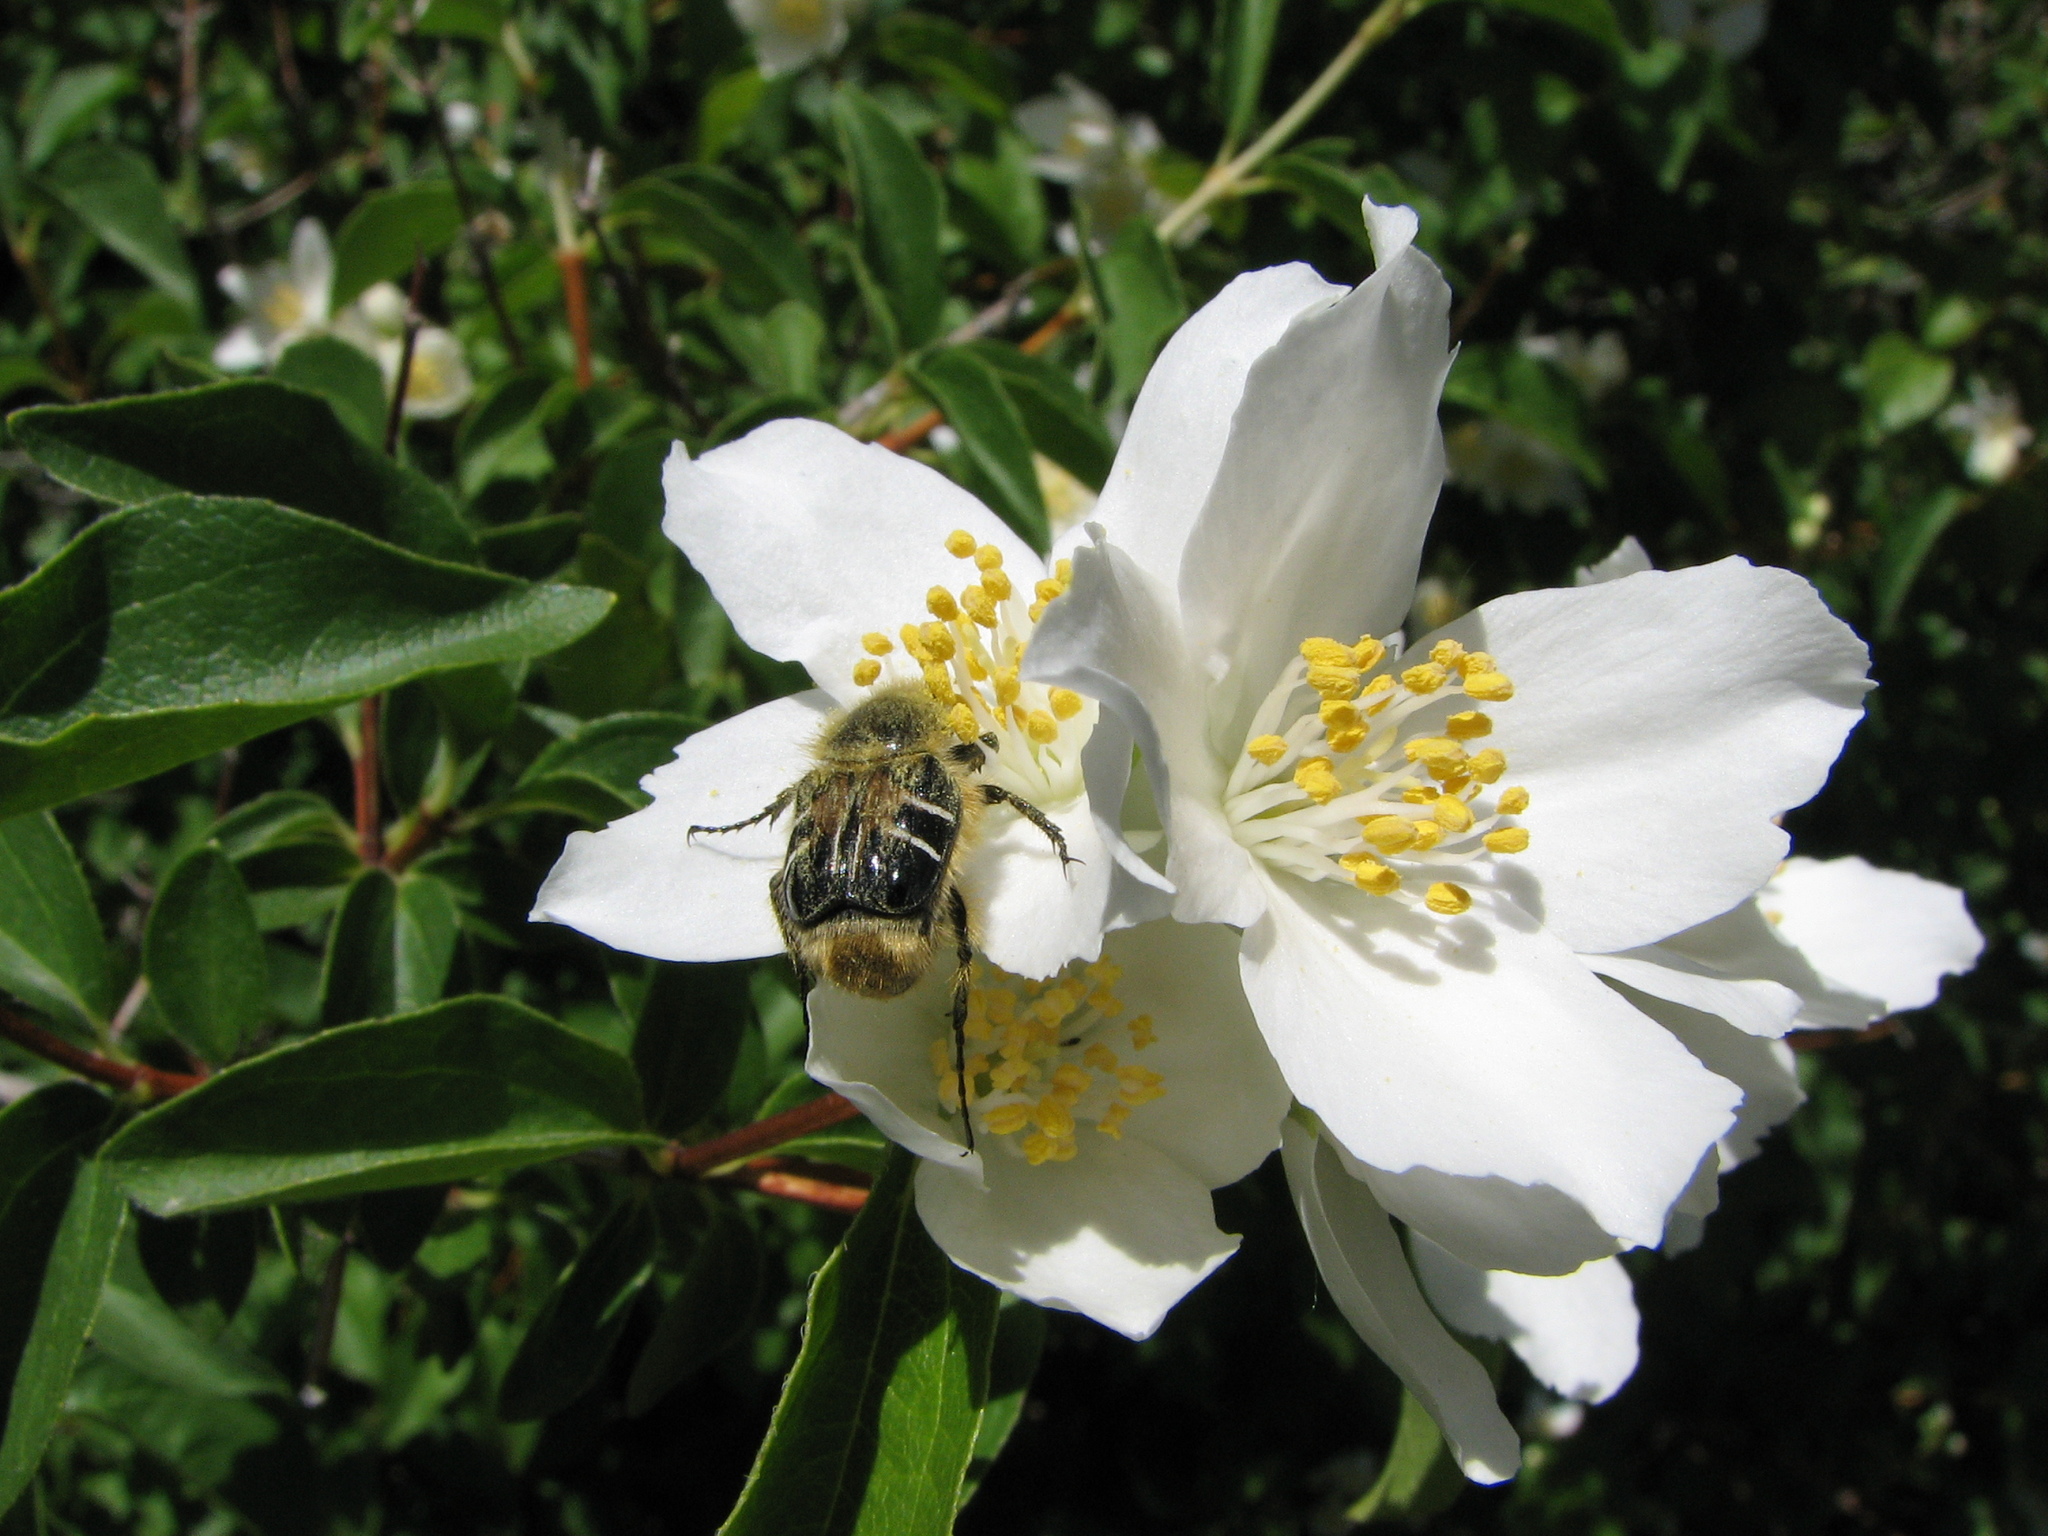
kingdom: Animalia
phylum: Arthropoda
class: Insecta
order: Coleoptera
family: Scarabaeidae
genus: Trichiotinus
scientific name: Trichiotinus assimilis
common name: Bee-mimic beetle
